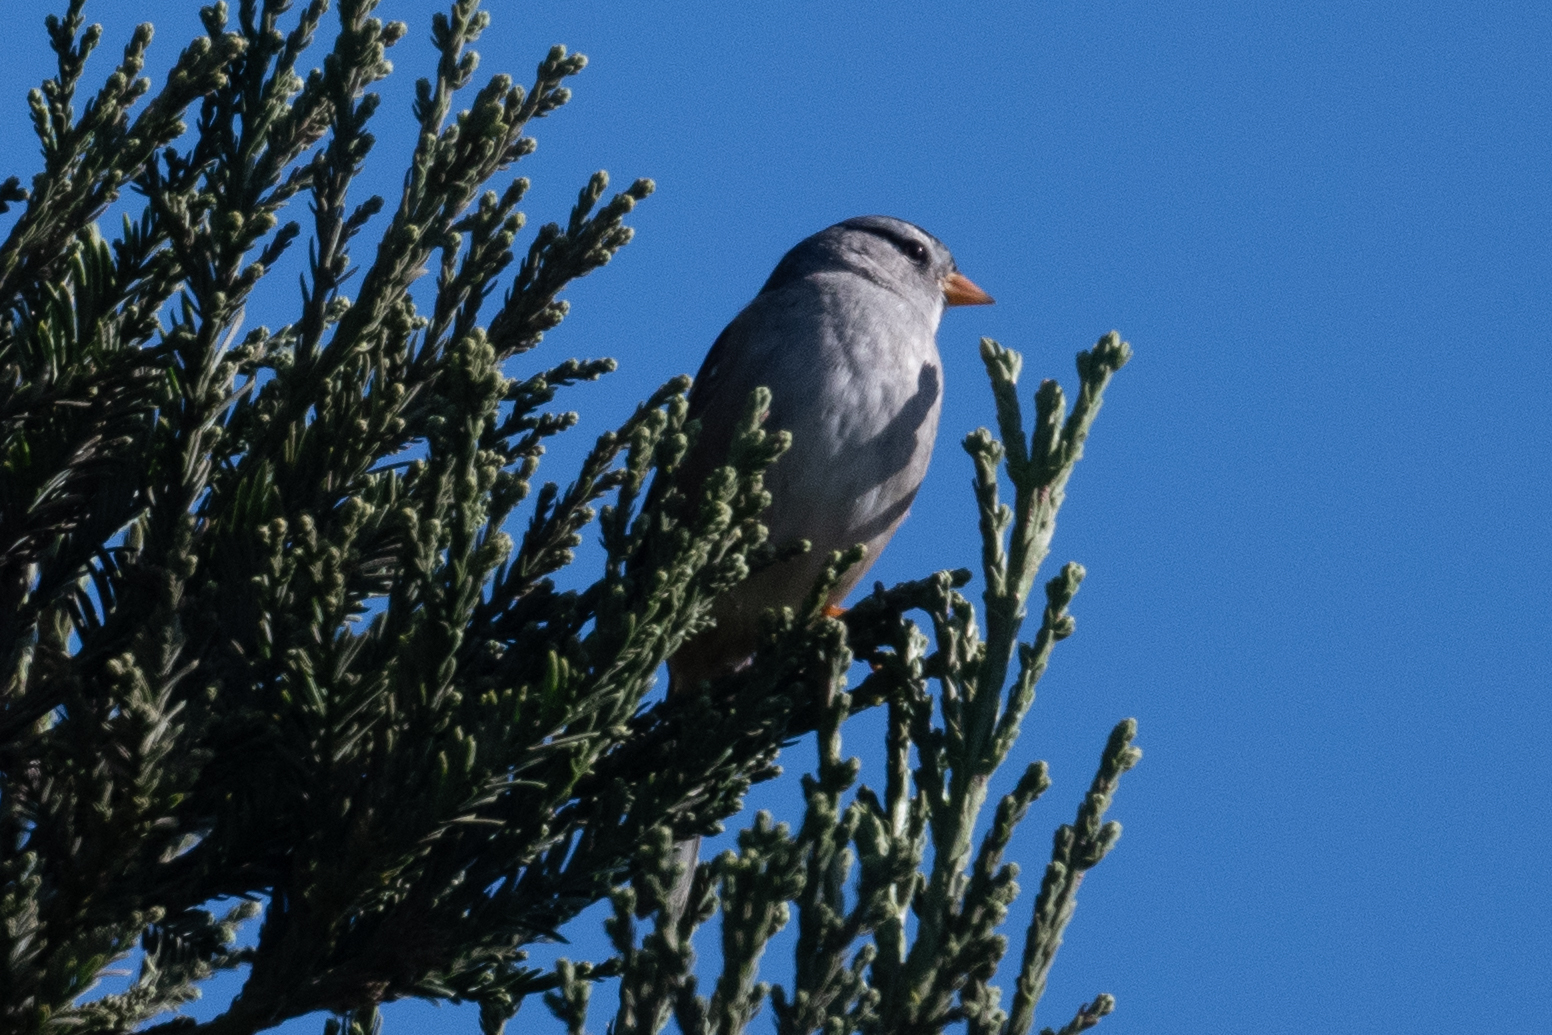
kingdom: Animalia
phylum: Chordata
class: Aves
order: Passeriformes
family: Passerellidae
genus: Zonotrichia
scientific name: Zonotrichia leucophrys
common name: White-crowned sparrow
